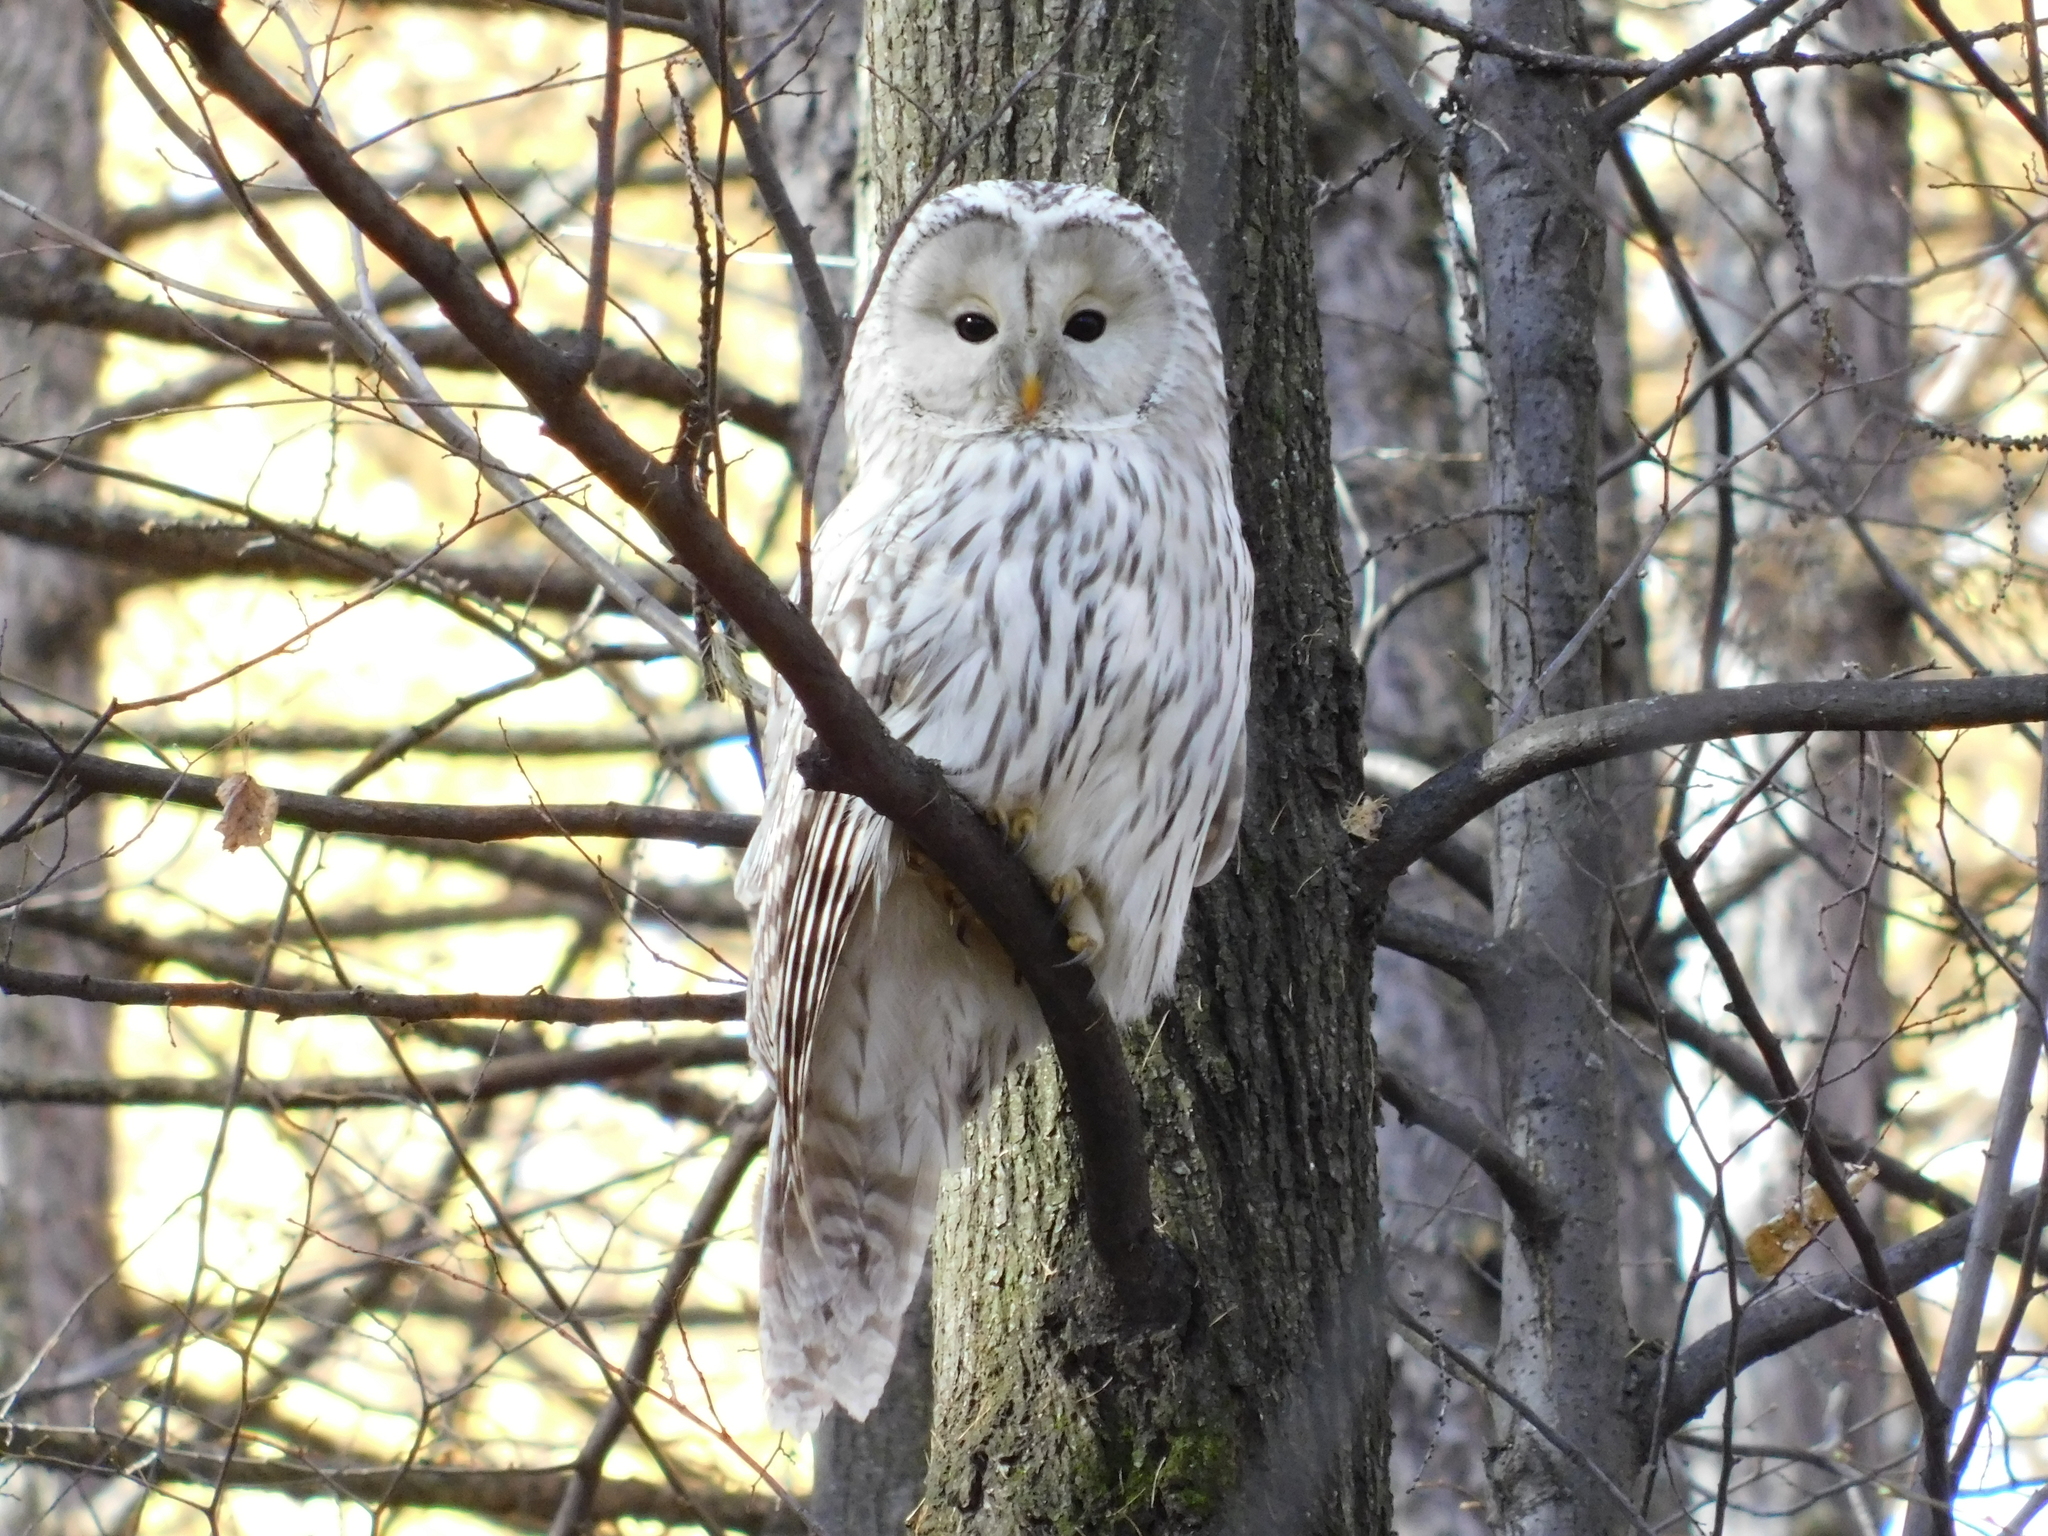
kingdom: Animalia
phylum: Chordata
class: Aves
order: Strigiformes
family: Strigidae
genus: Strix
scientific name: Strix uralensis
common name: Ural owl
